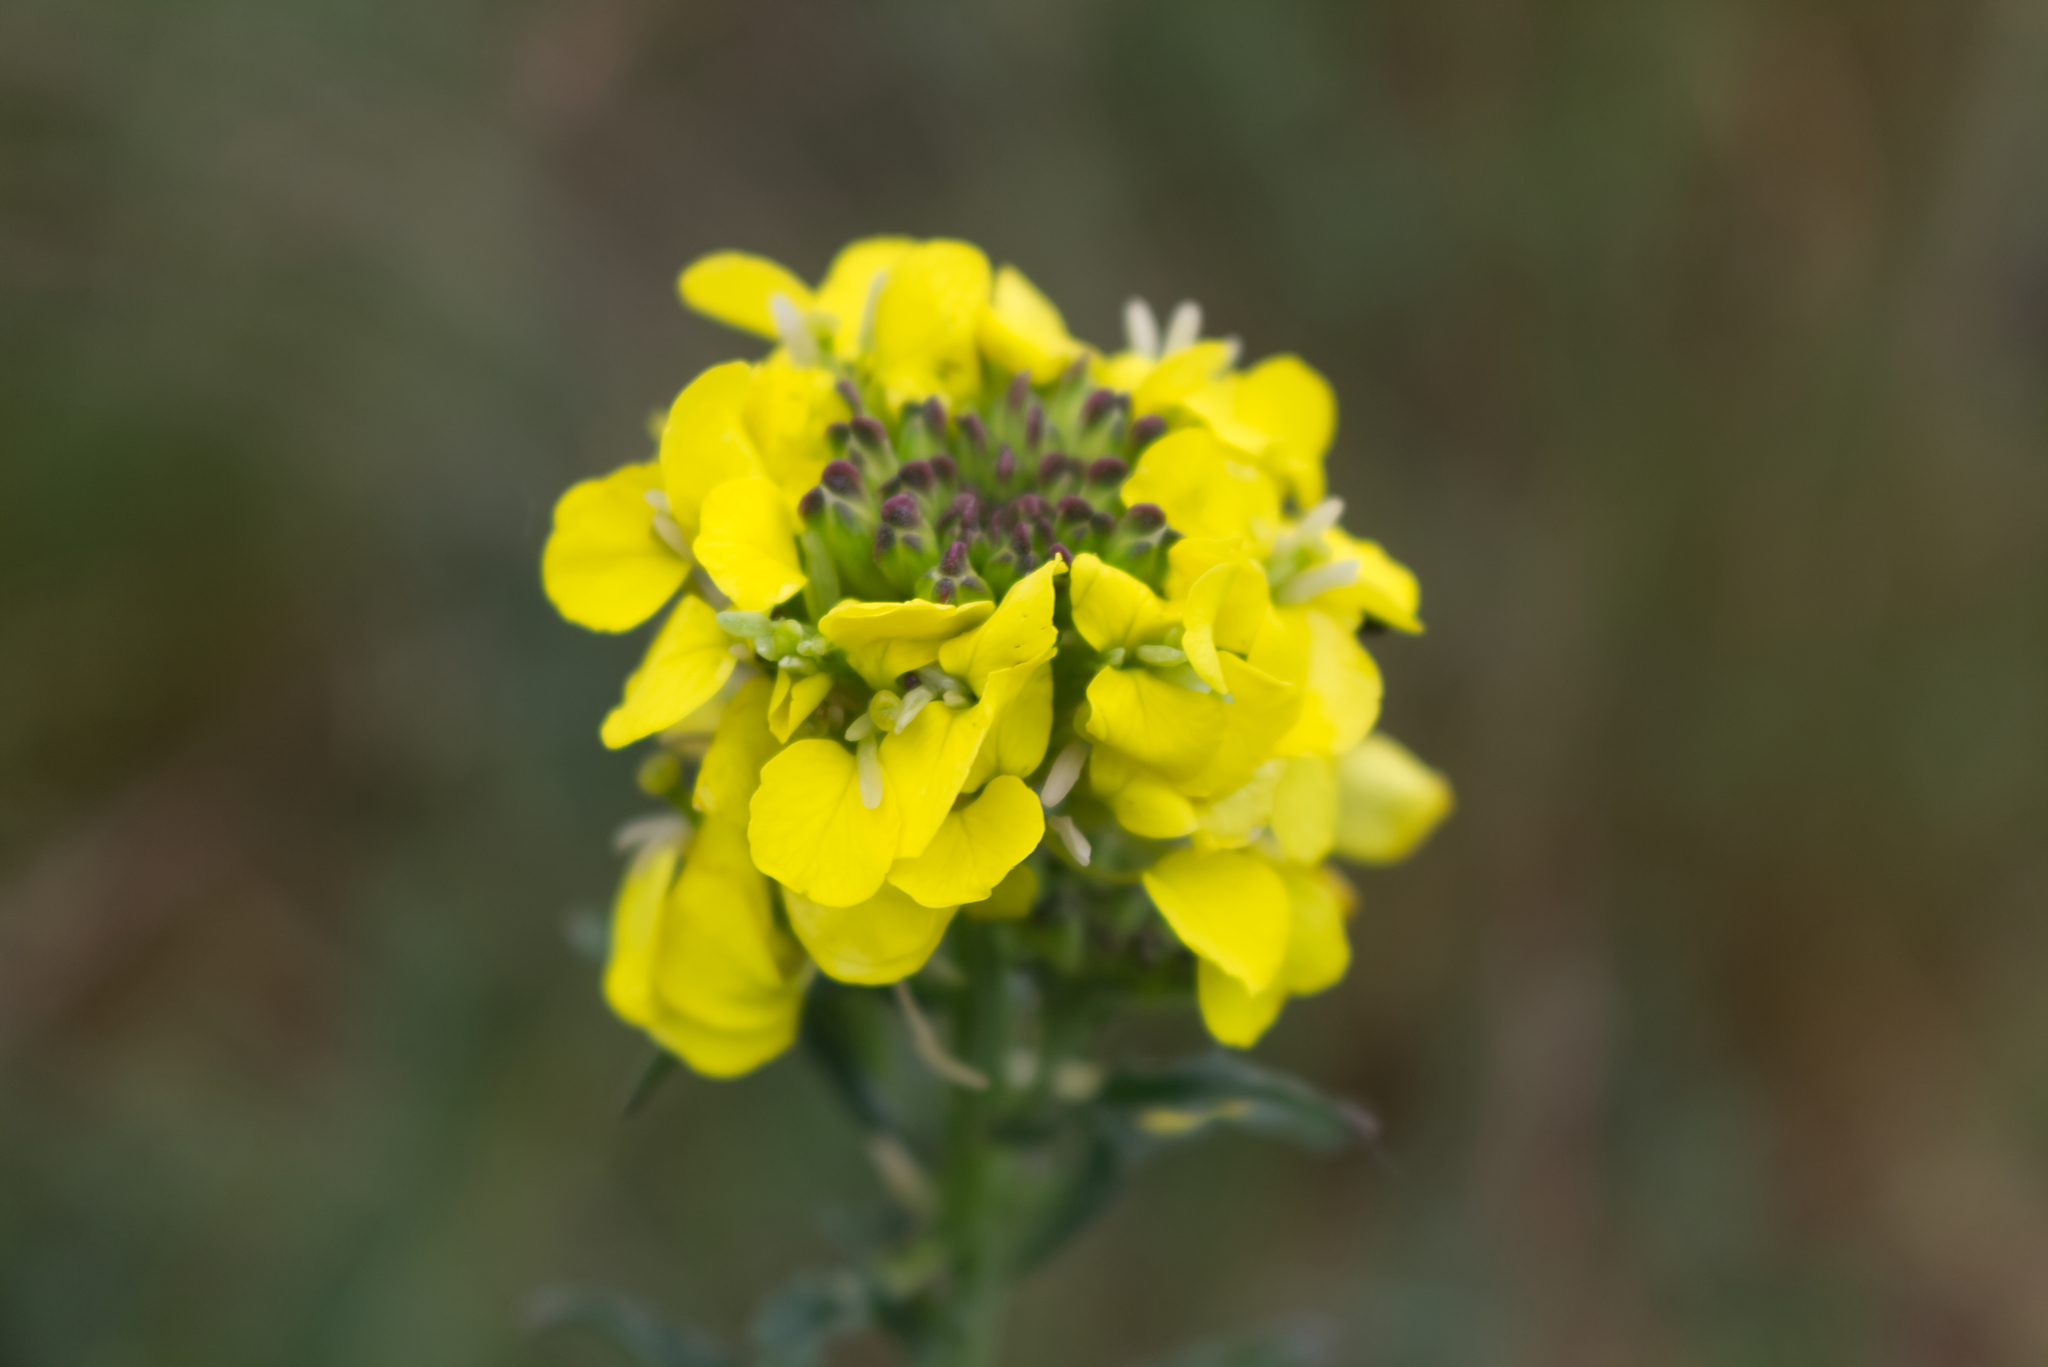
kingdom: Plantae
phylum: Tracheophyta
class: Magnoliopsida
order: Brassicales
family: Brassicaceae
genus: Erysimum
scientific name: Erysimum odoratum
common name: Smelly wallflower
